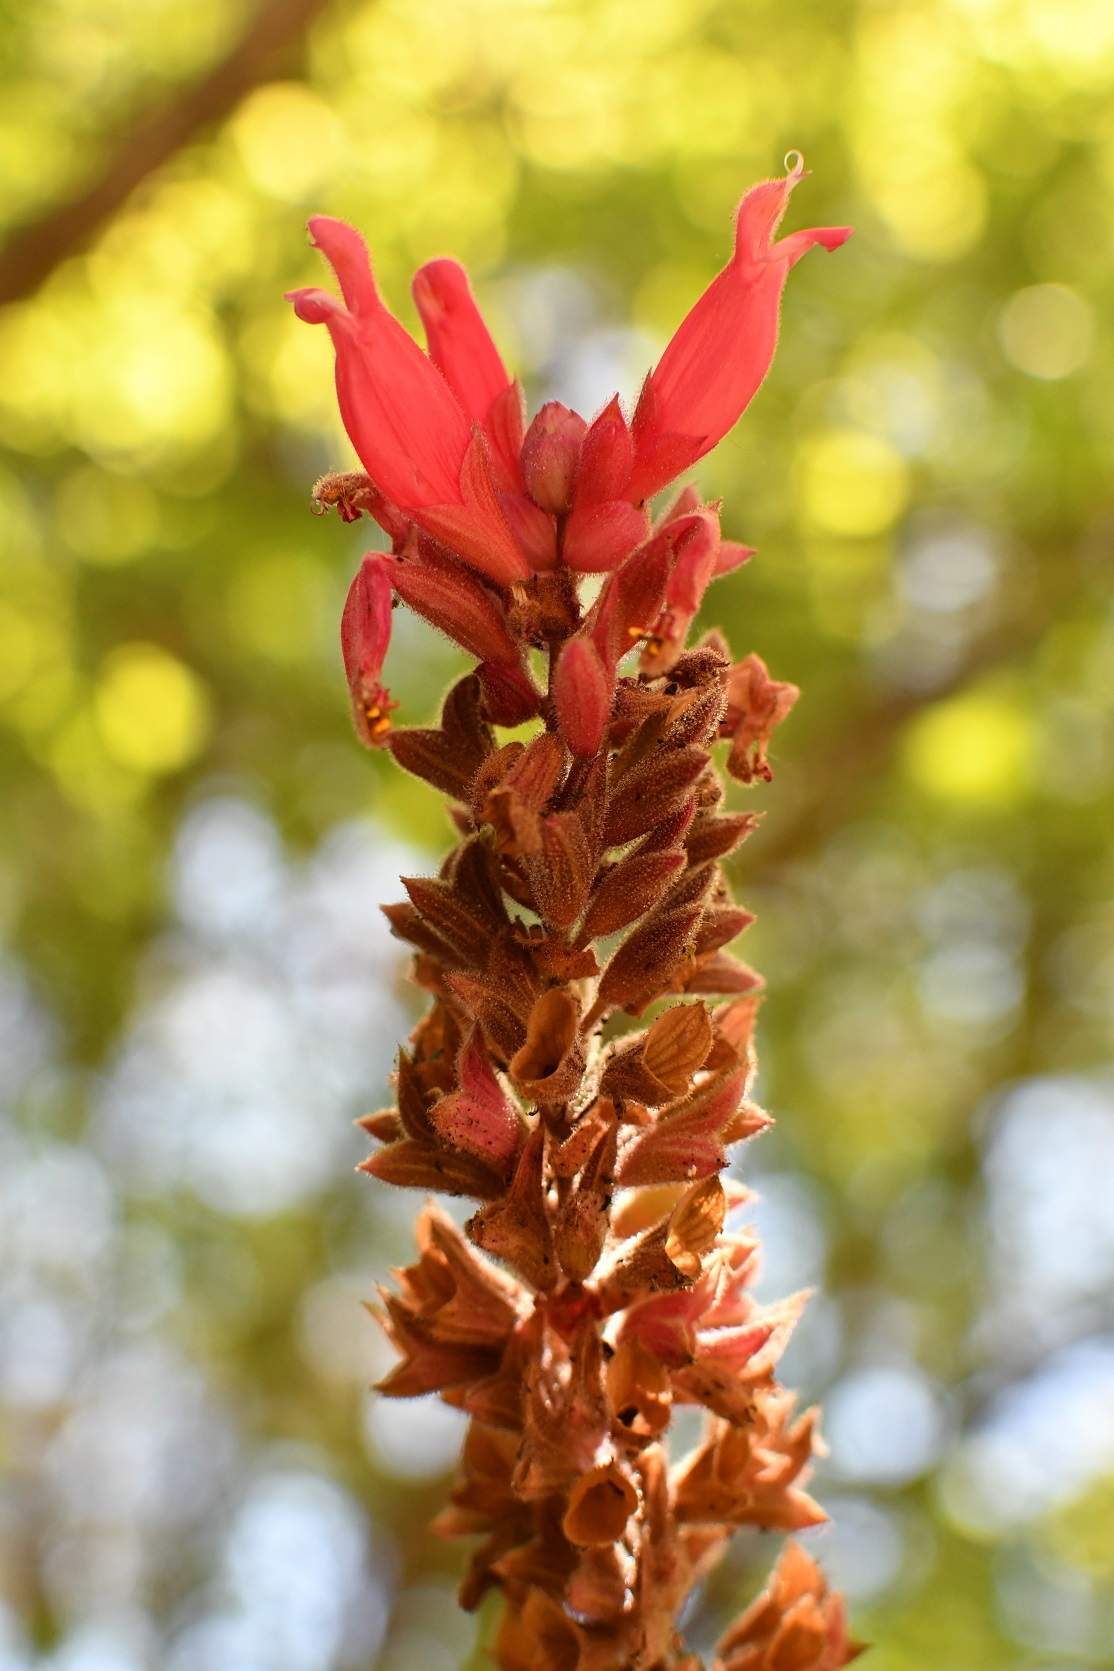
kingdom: Plantae
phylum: Tracheophyta
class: Magnoliopsida
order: Lamiales
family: Lamiaceae
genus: Salvia
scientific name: Salvia wagneriana
